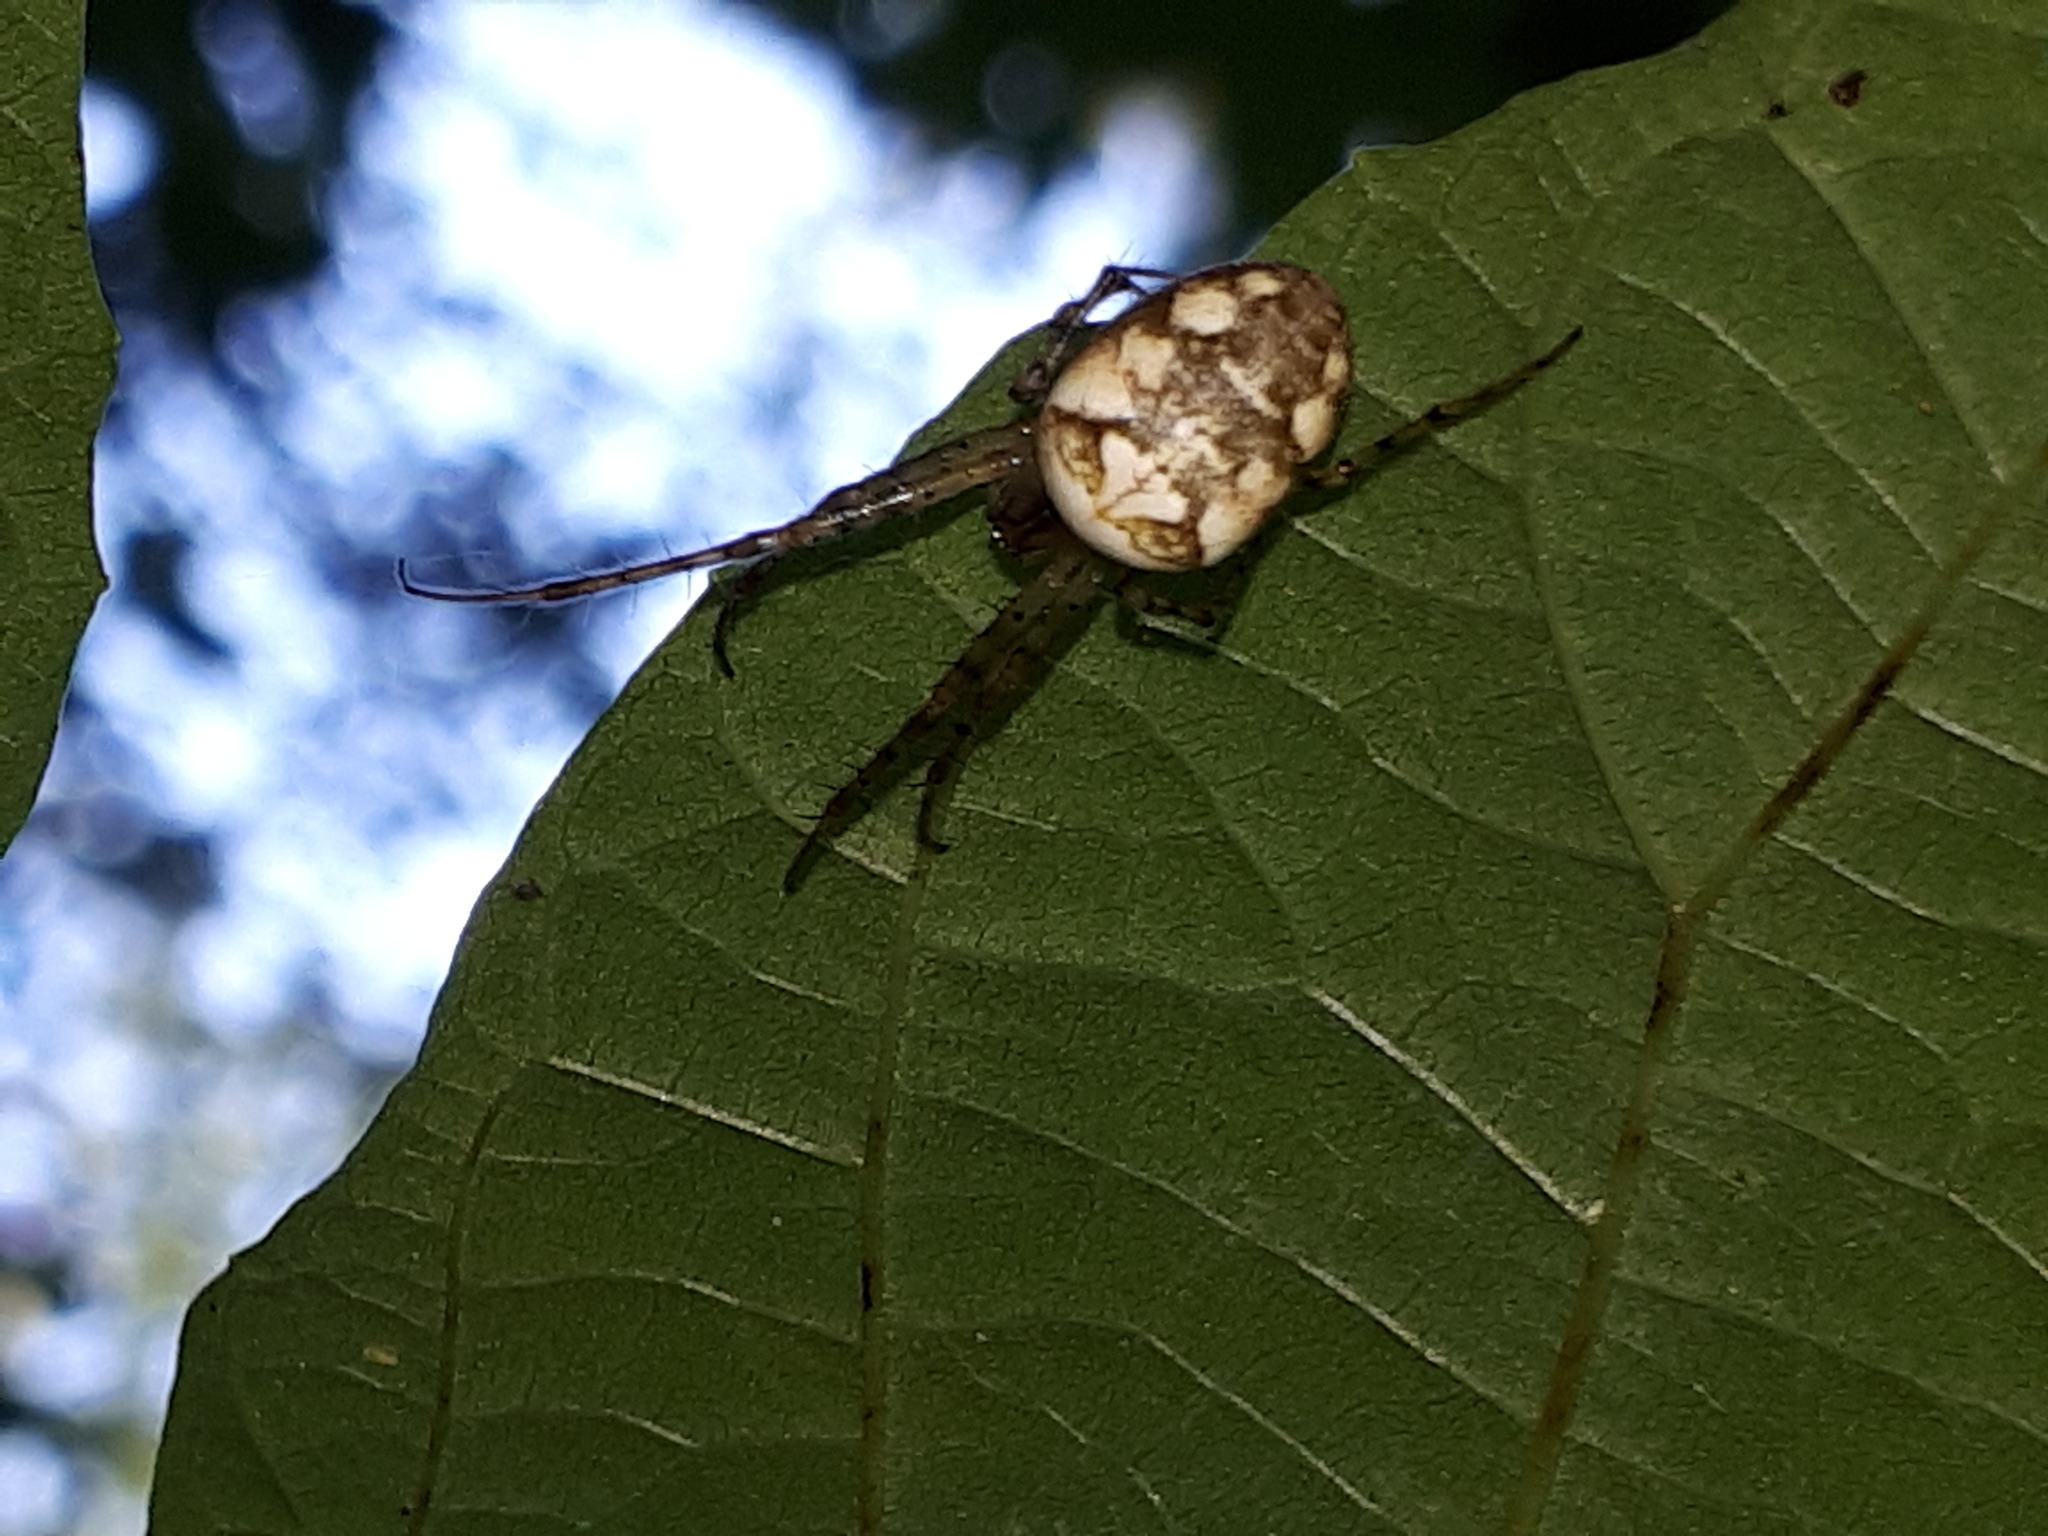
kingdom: Animalia
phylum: Arthropoda
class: Arachnida
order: Araneae
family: Tetragnathidae
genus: Metellina
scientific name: Metellina
